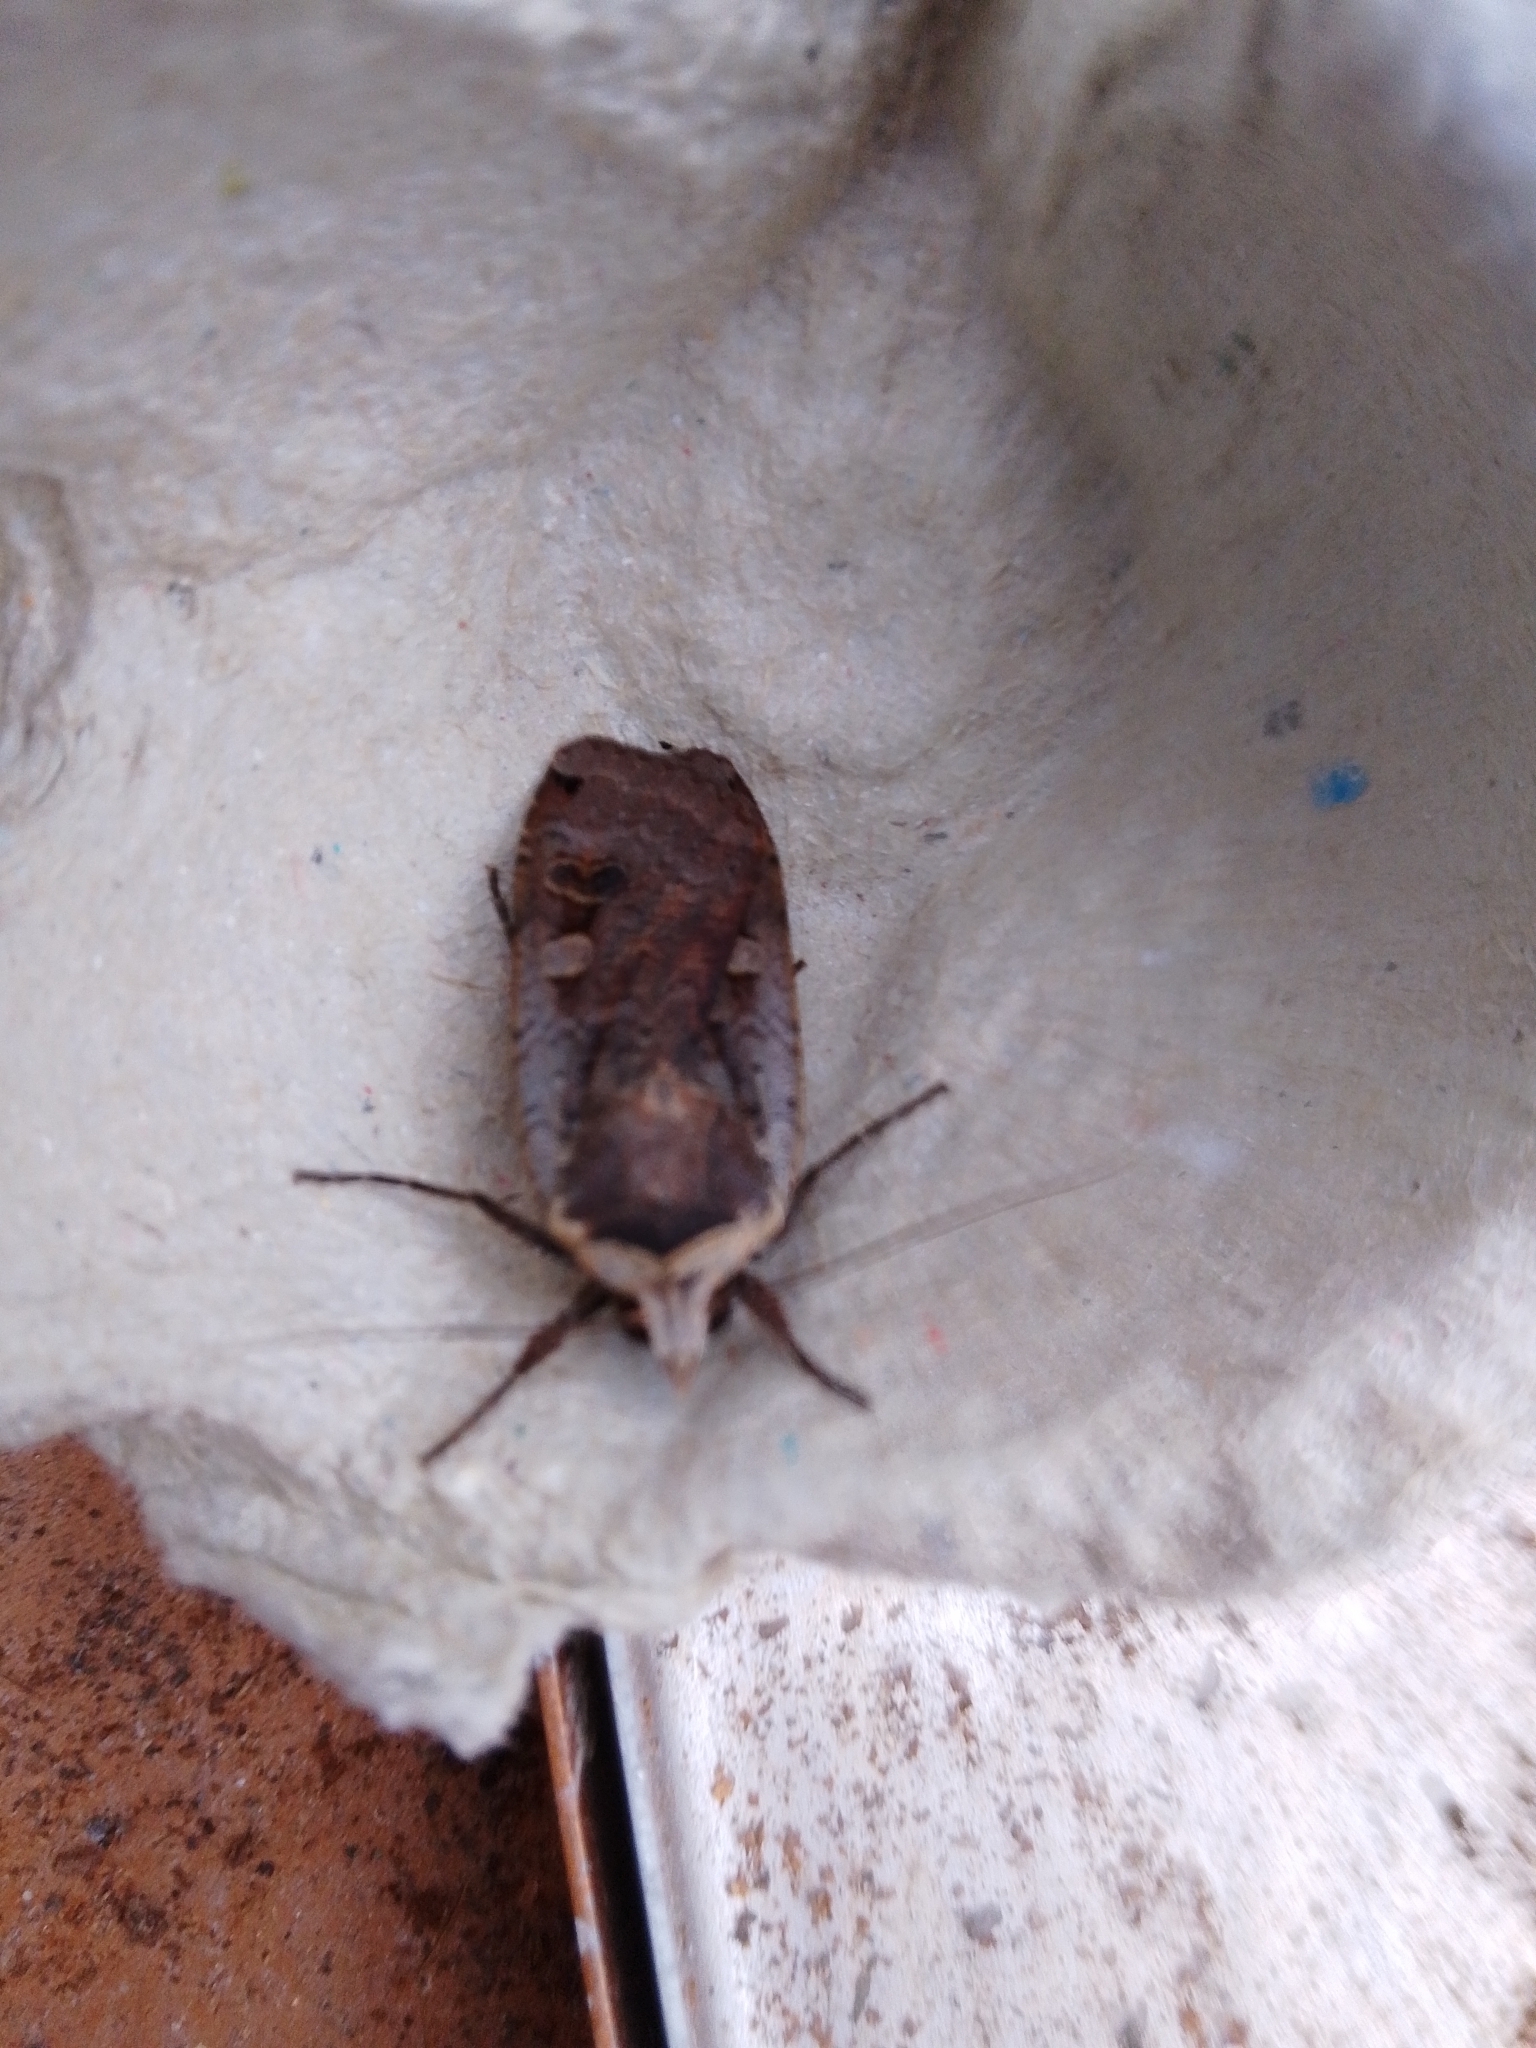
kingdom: Animalia
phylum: Arthropoda
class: Insecta
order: Lepidoptera
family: Noctuidae
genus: Noctua
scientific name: Noctua pronuba
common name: Large yellow underwing
